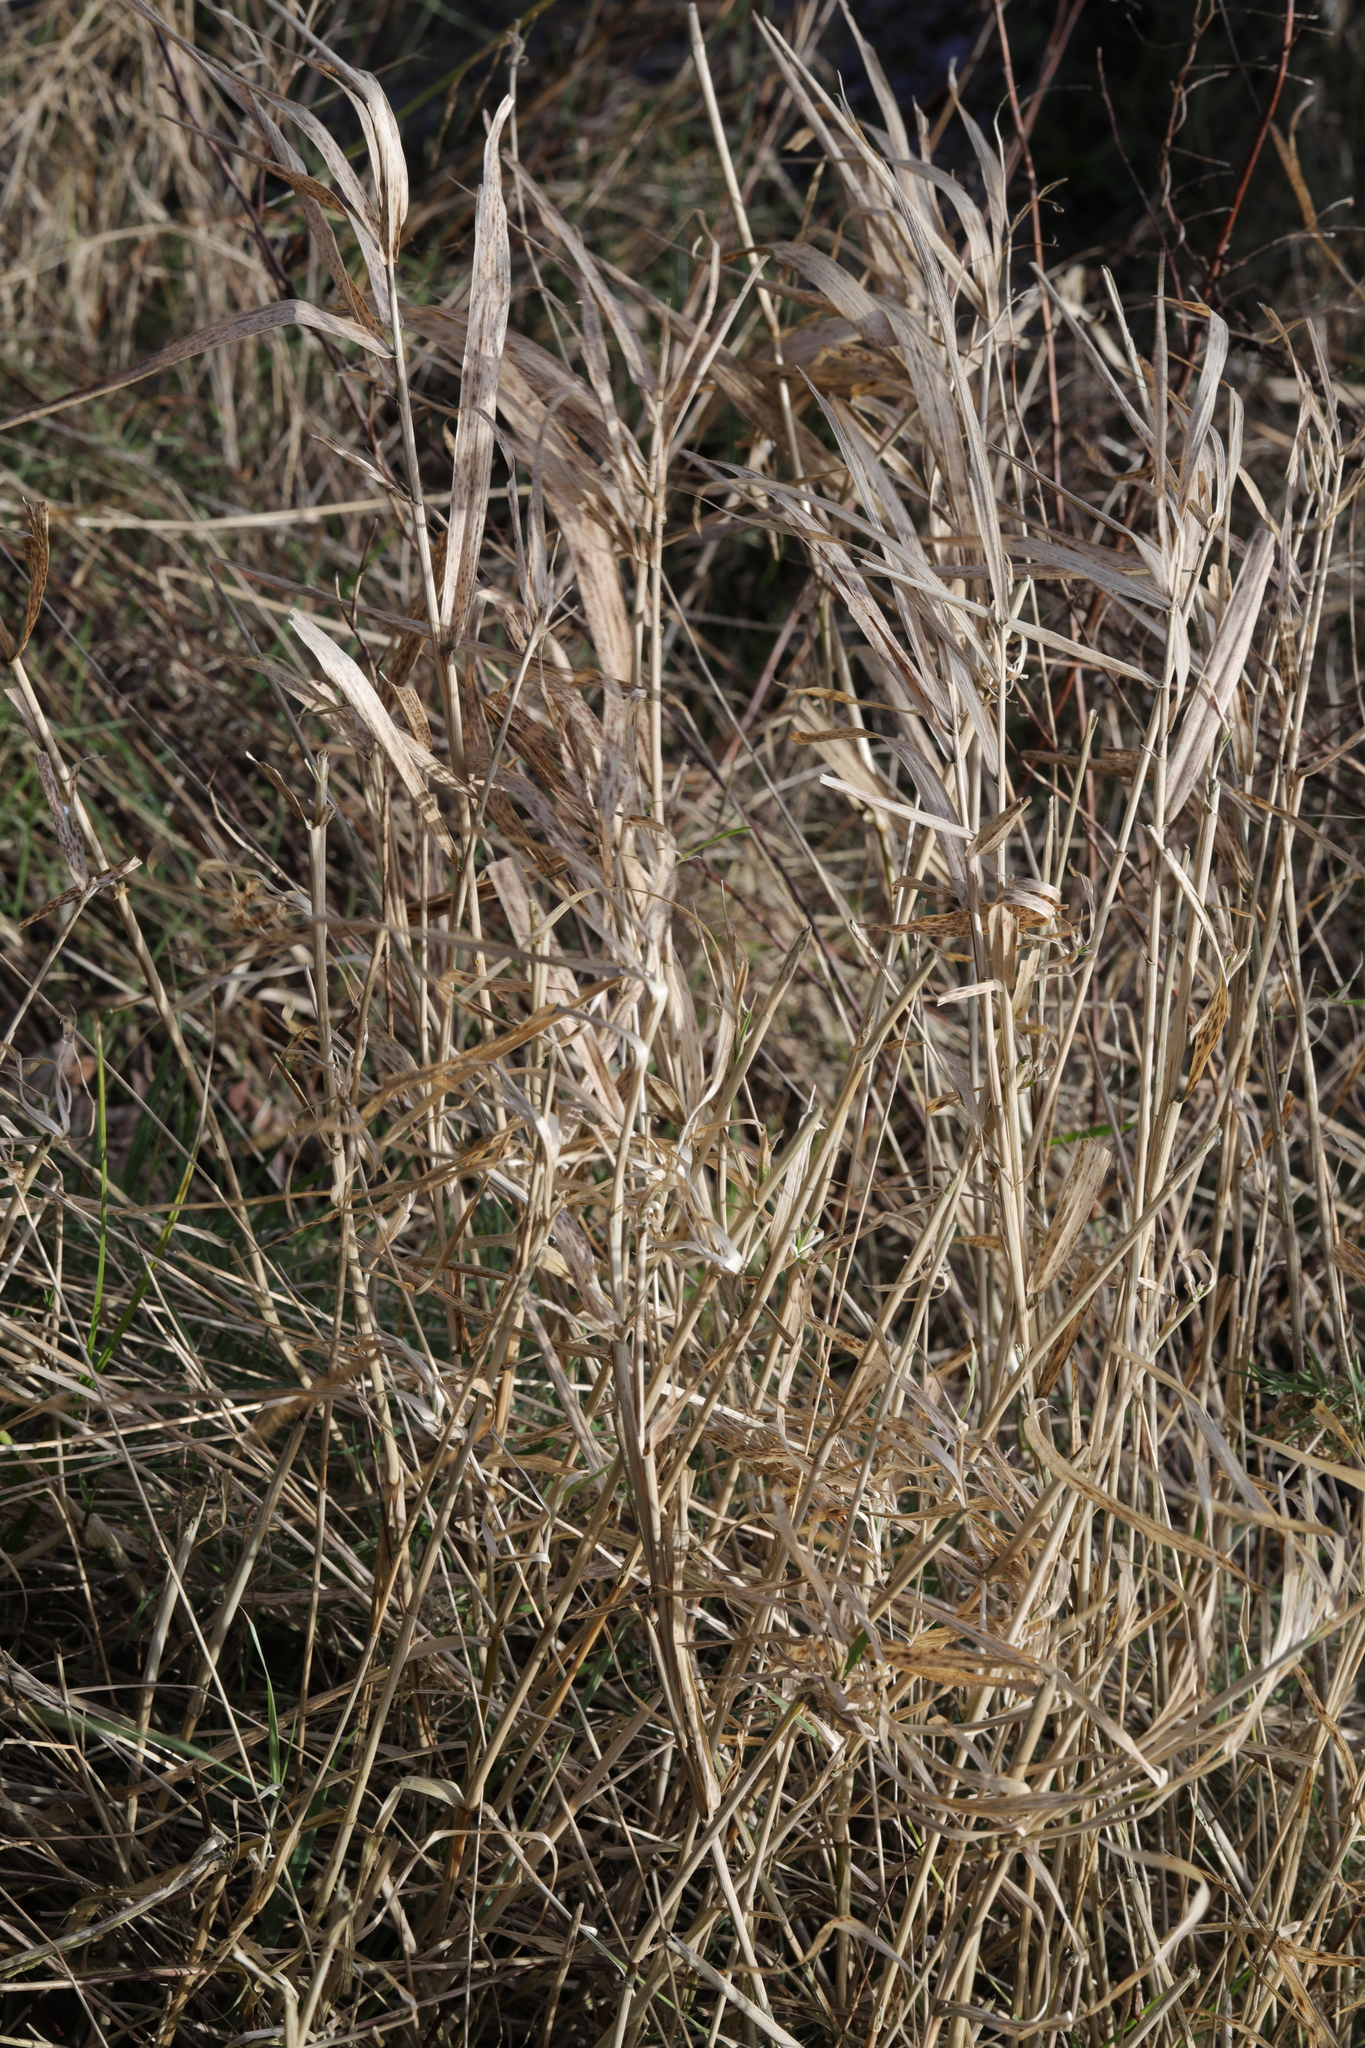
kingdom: Plantae
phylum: Tracheophyta
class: Liliopsida
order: Poales
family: Poaceae
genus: Phalaris
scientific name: Phalaris arundinacea
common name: Reed canary-grass
